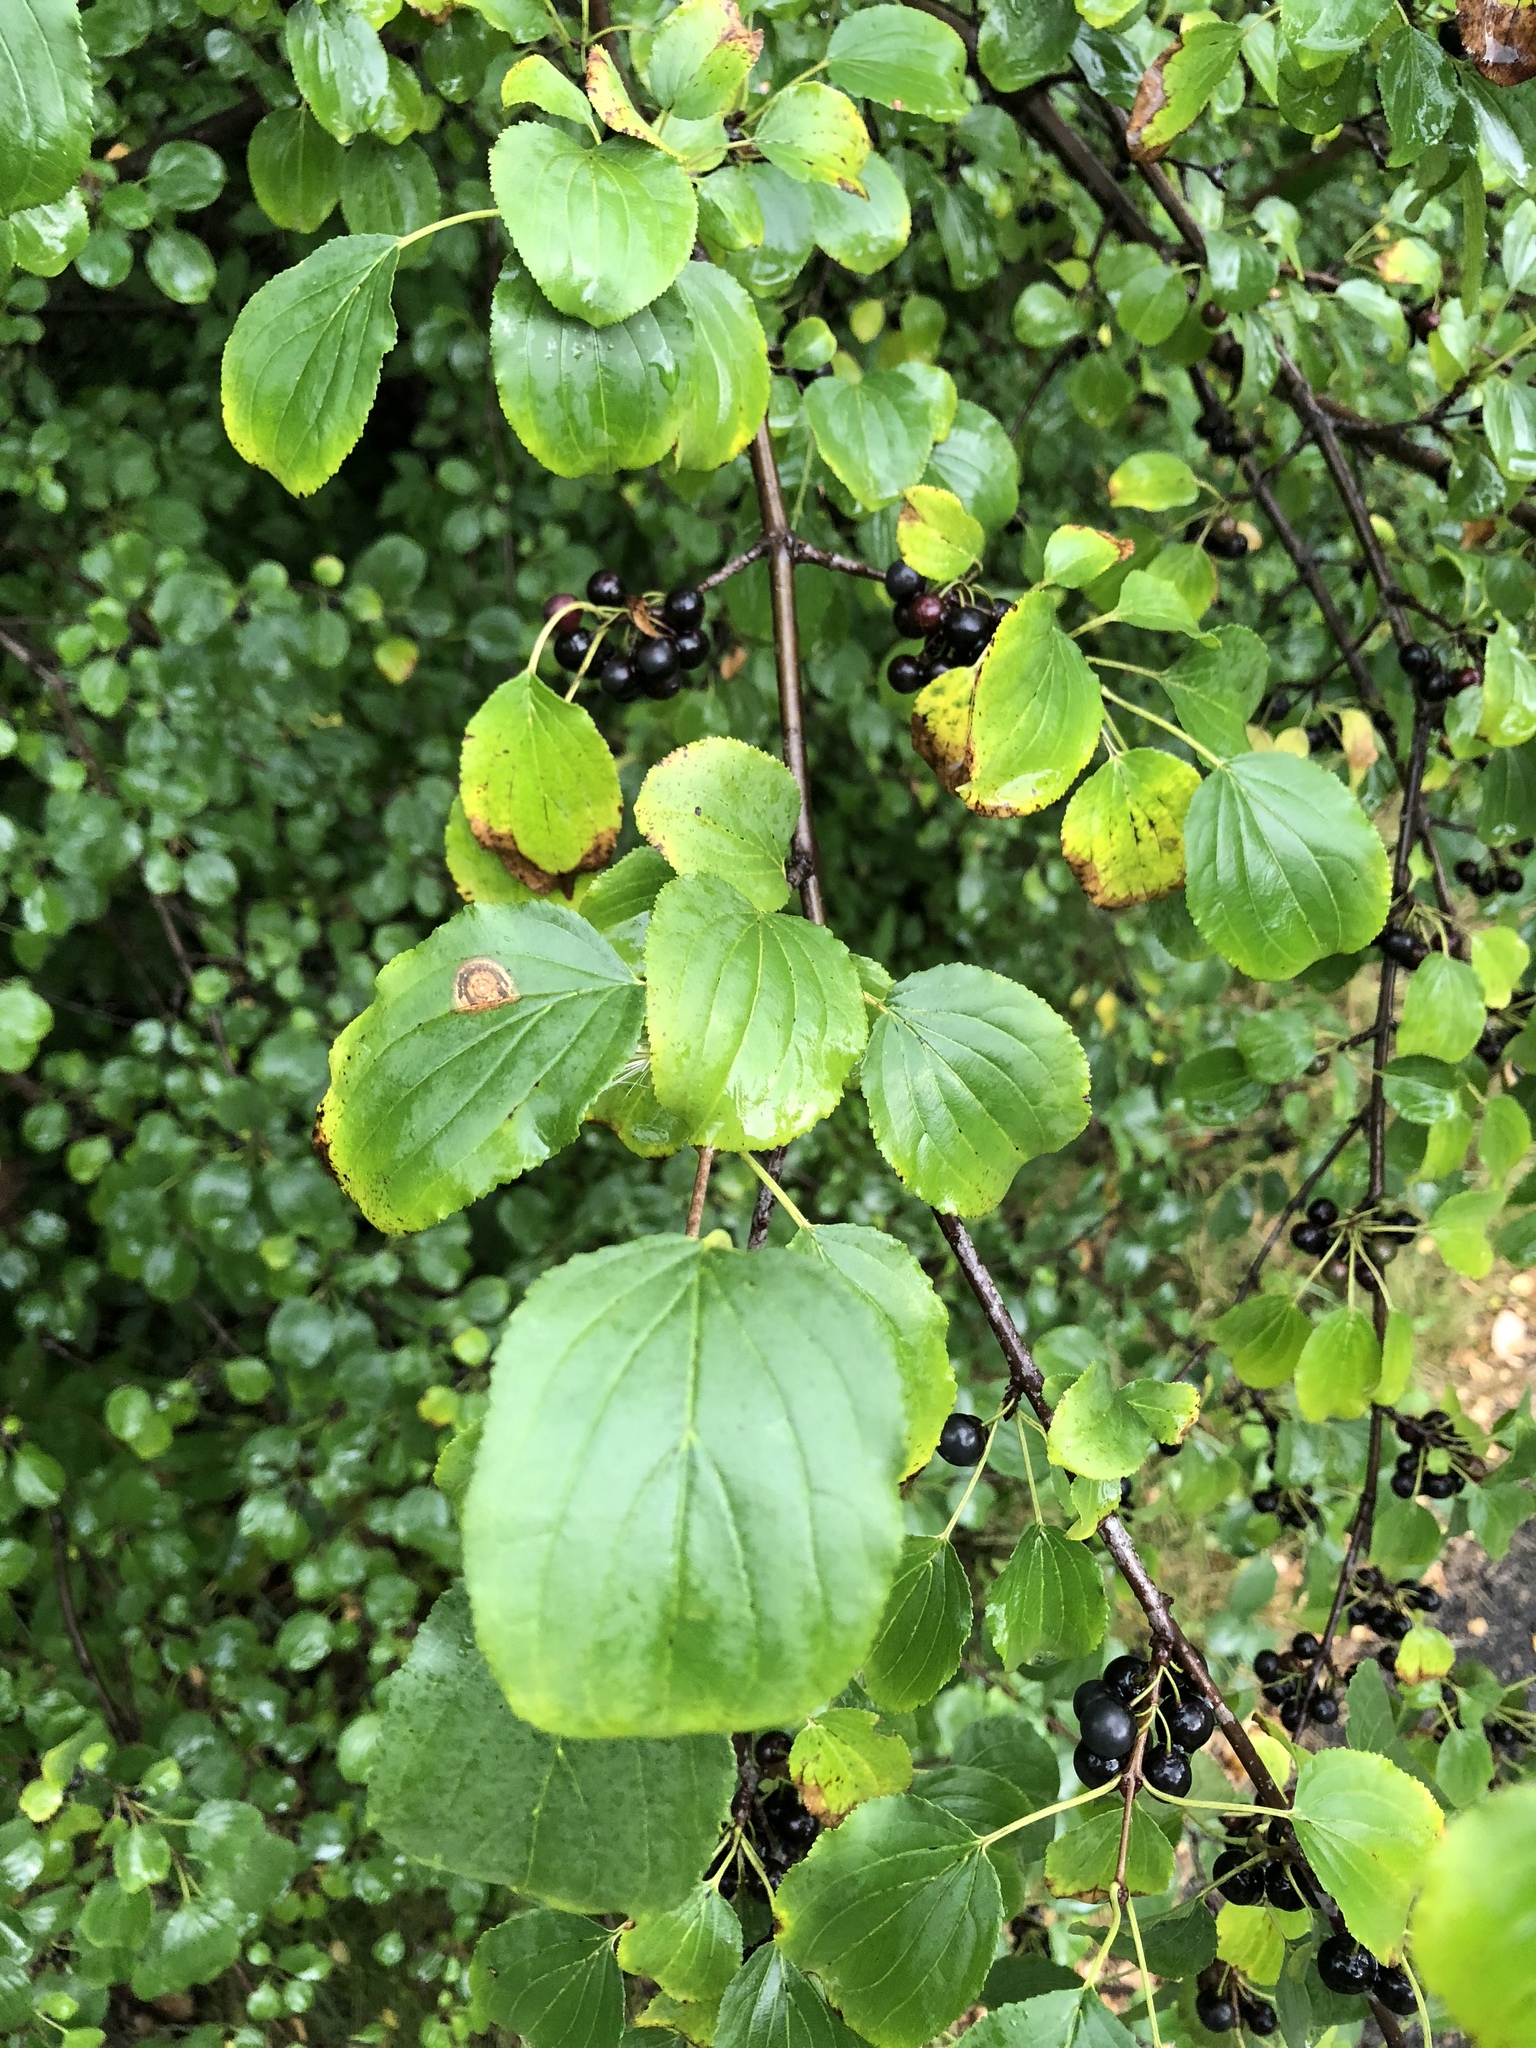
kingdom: Plantae
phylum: Tracheophyta
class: Magnoliopsida
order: Rosales
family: Rhamnaceae
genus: Rhamnus
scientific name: Rhamnus cathartica
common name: Common buckthorn
